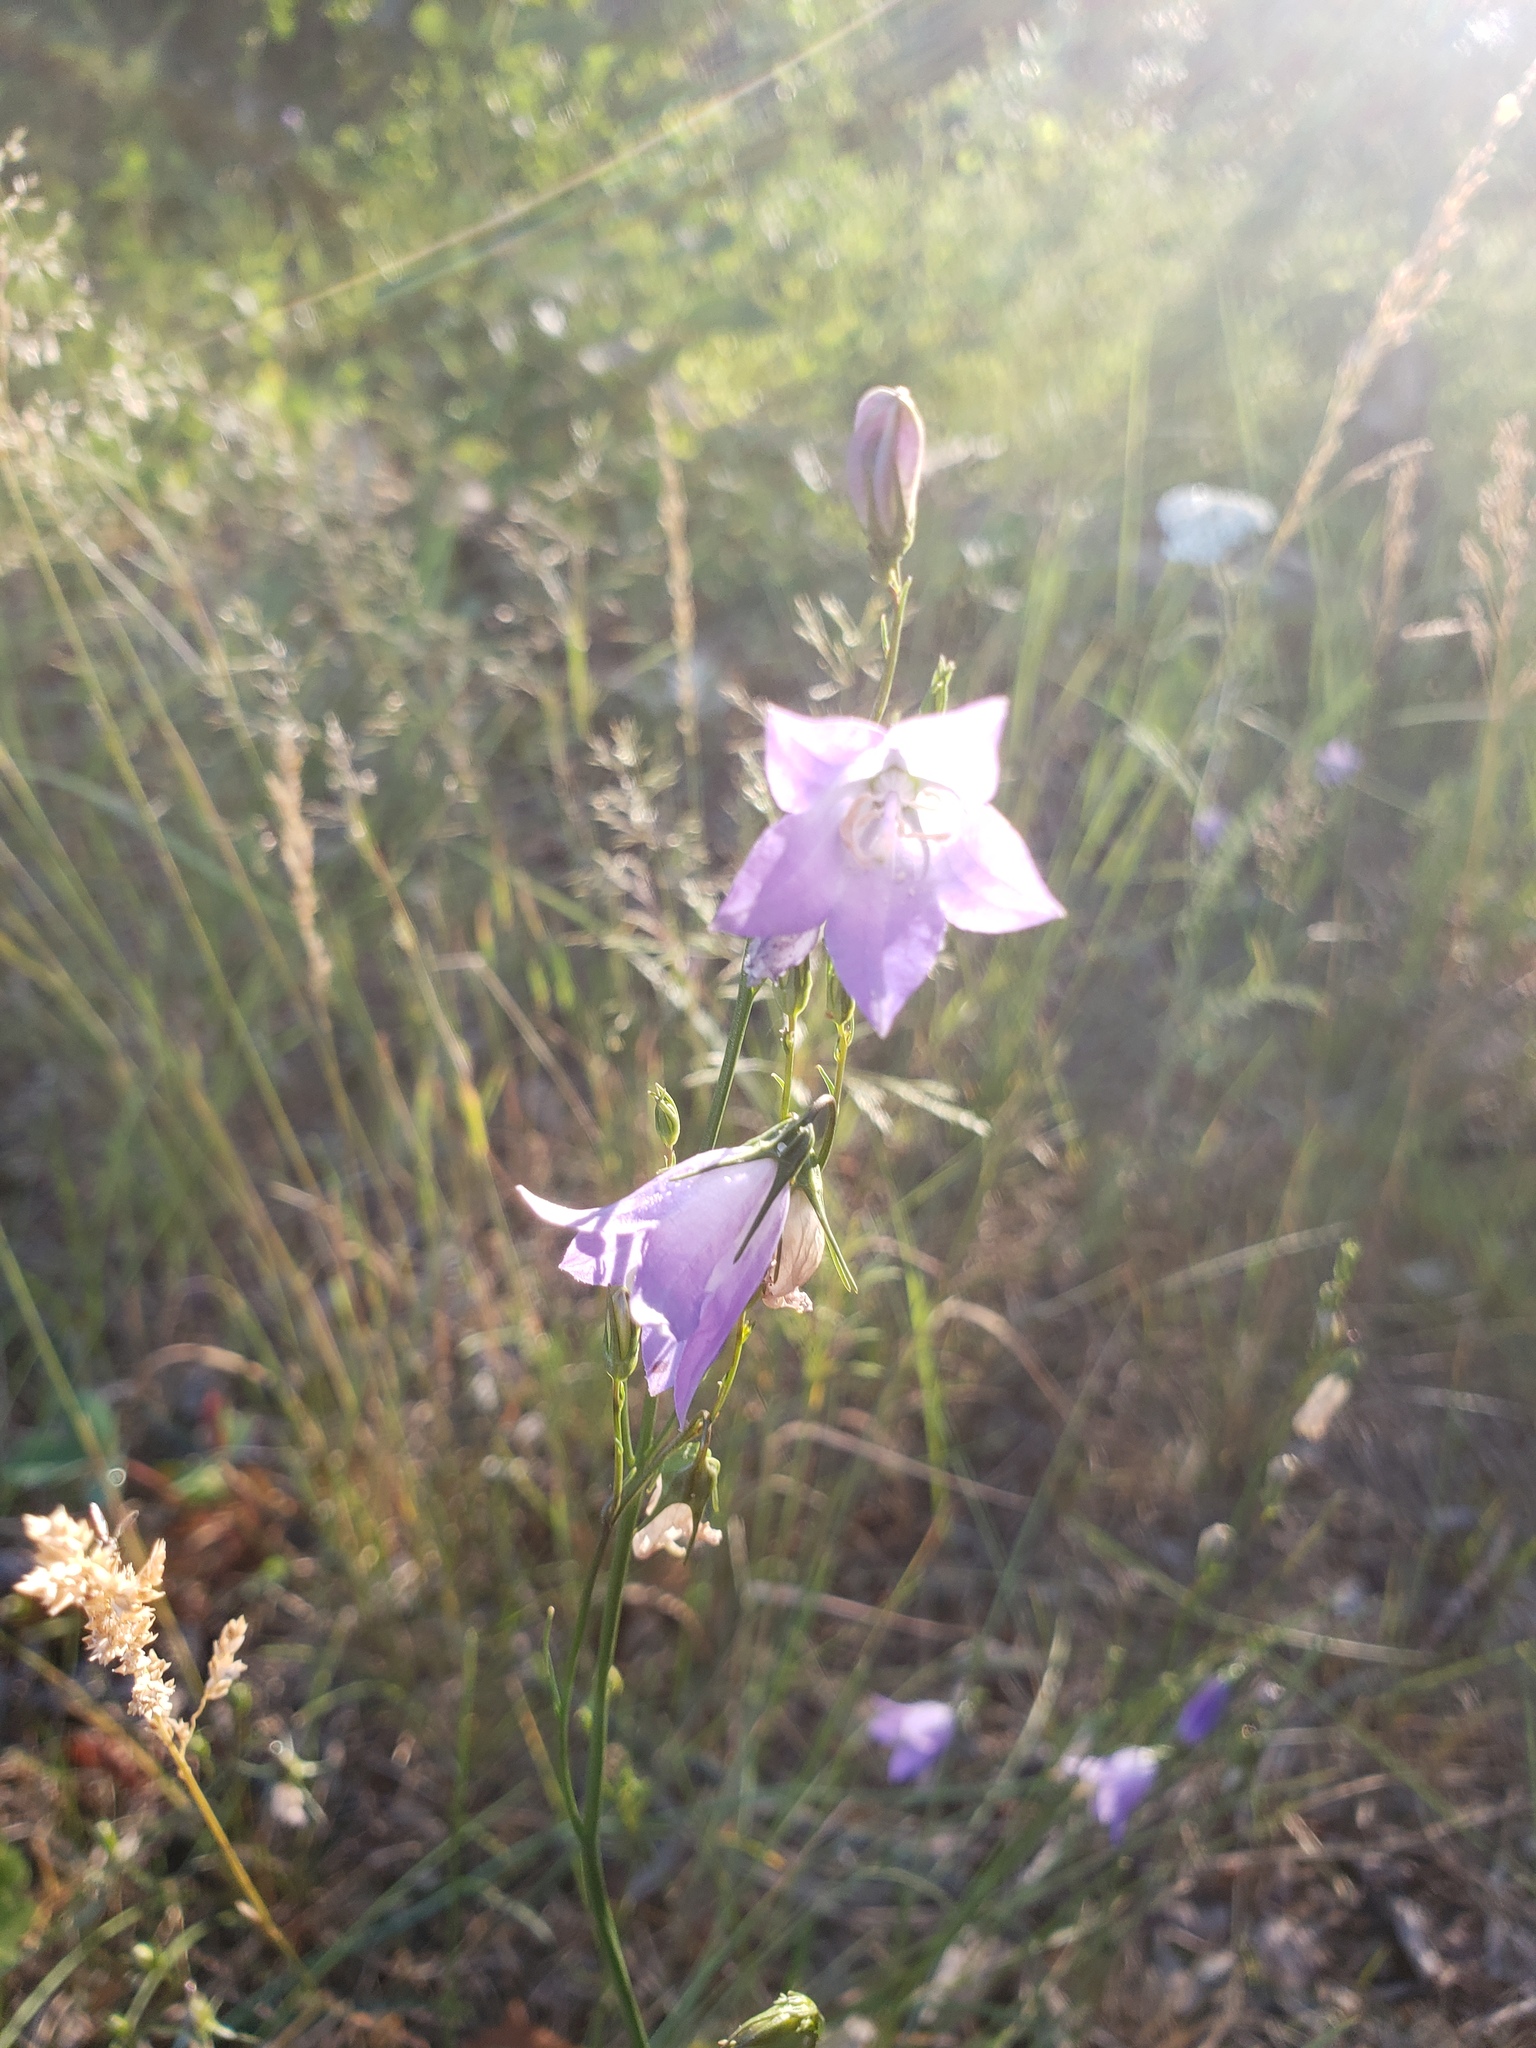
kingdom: Plantae
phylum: Tracheophyta
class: Magnoliopsida
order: Asterales
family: Campanulaceae
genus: Campanula
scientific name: Campanula petiolata
